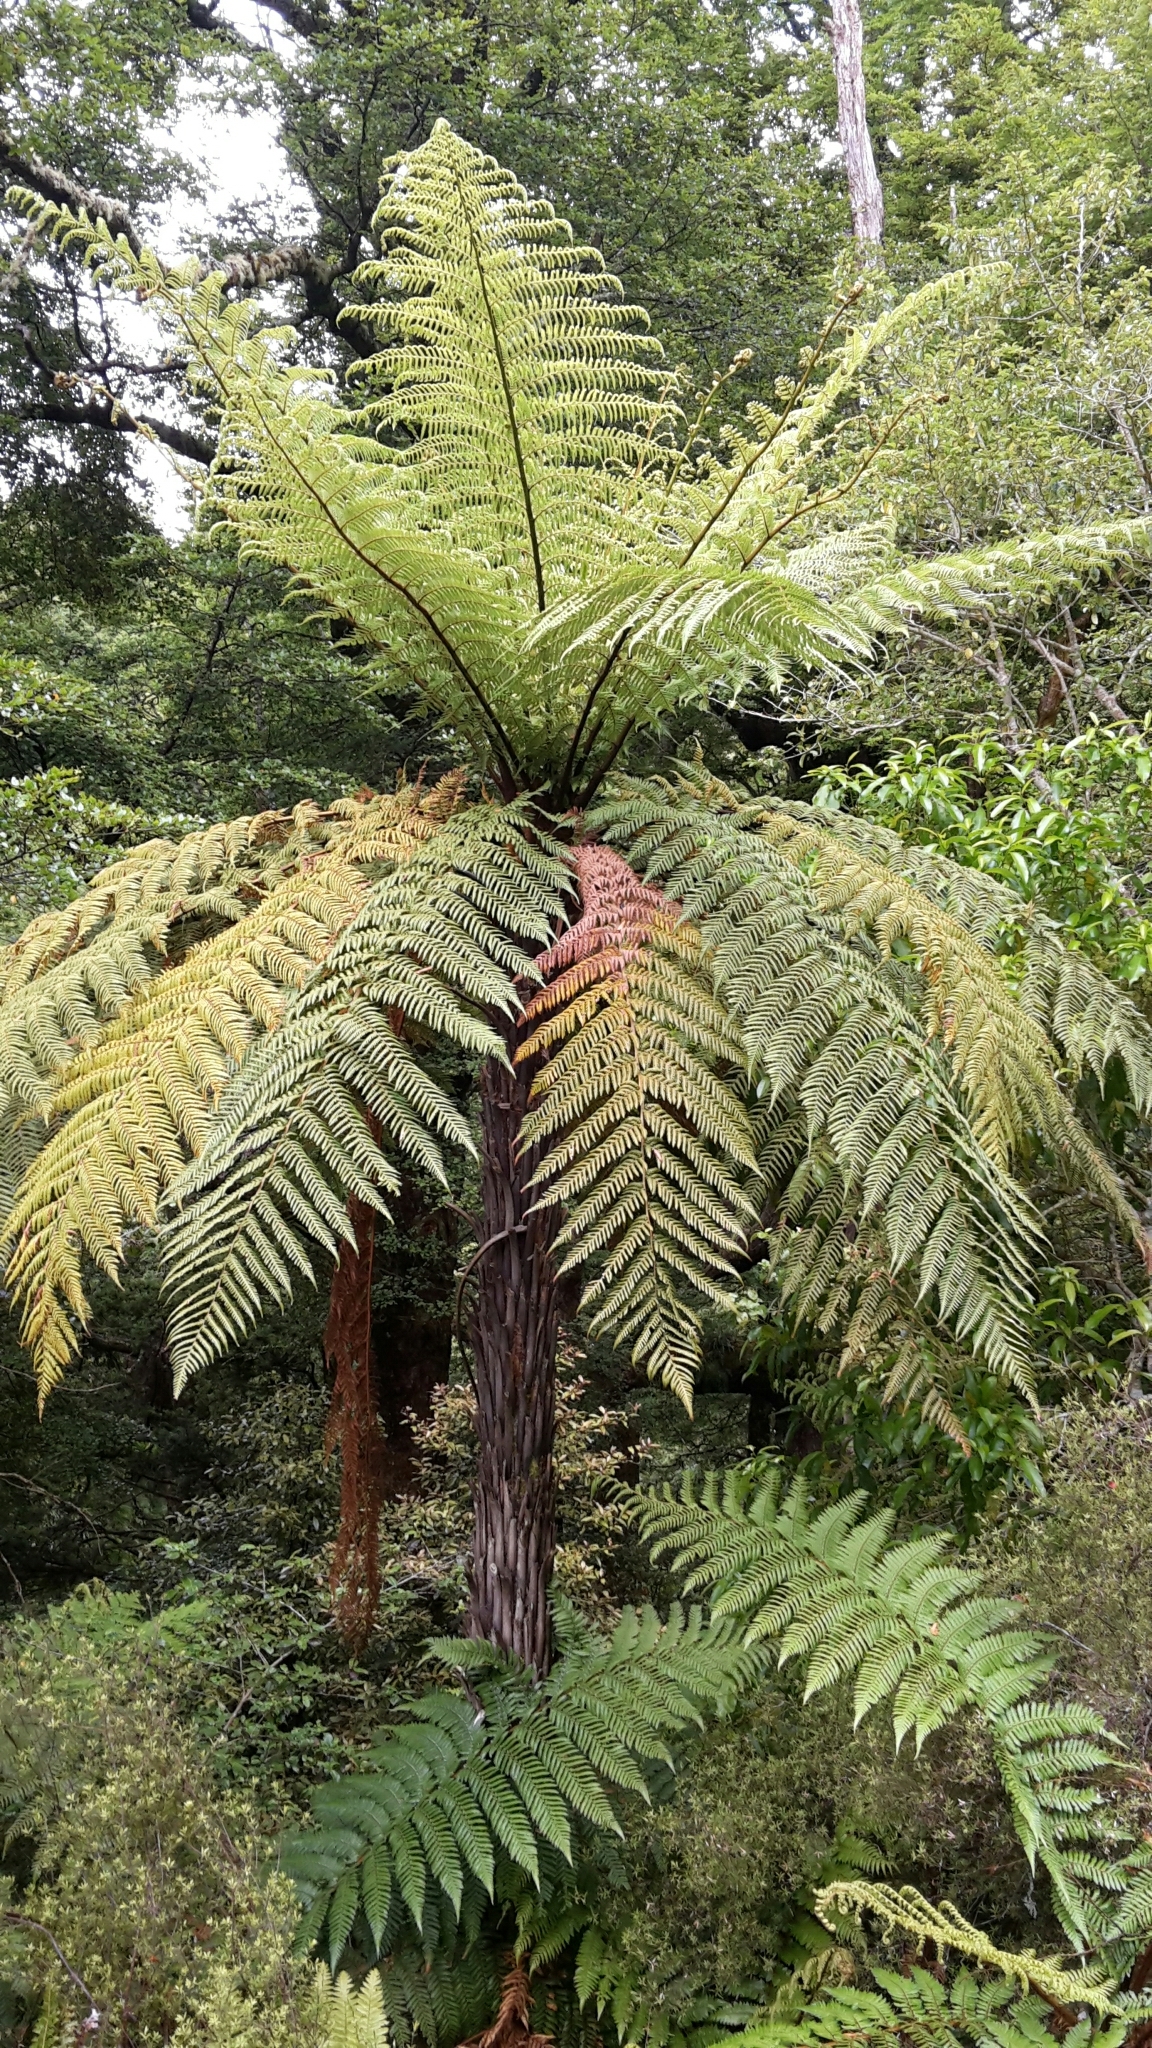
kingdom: Plantae
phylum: Tracheophyta
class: Polypodiopsida
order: Cyatheales
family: Dicksoniaceae
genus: Dicksonia
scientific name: Dicksonia squarrosa
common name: Hard treefern
